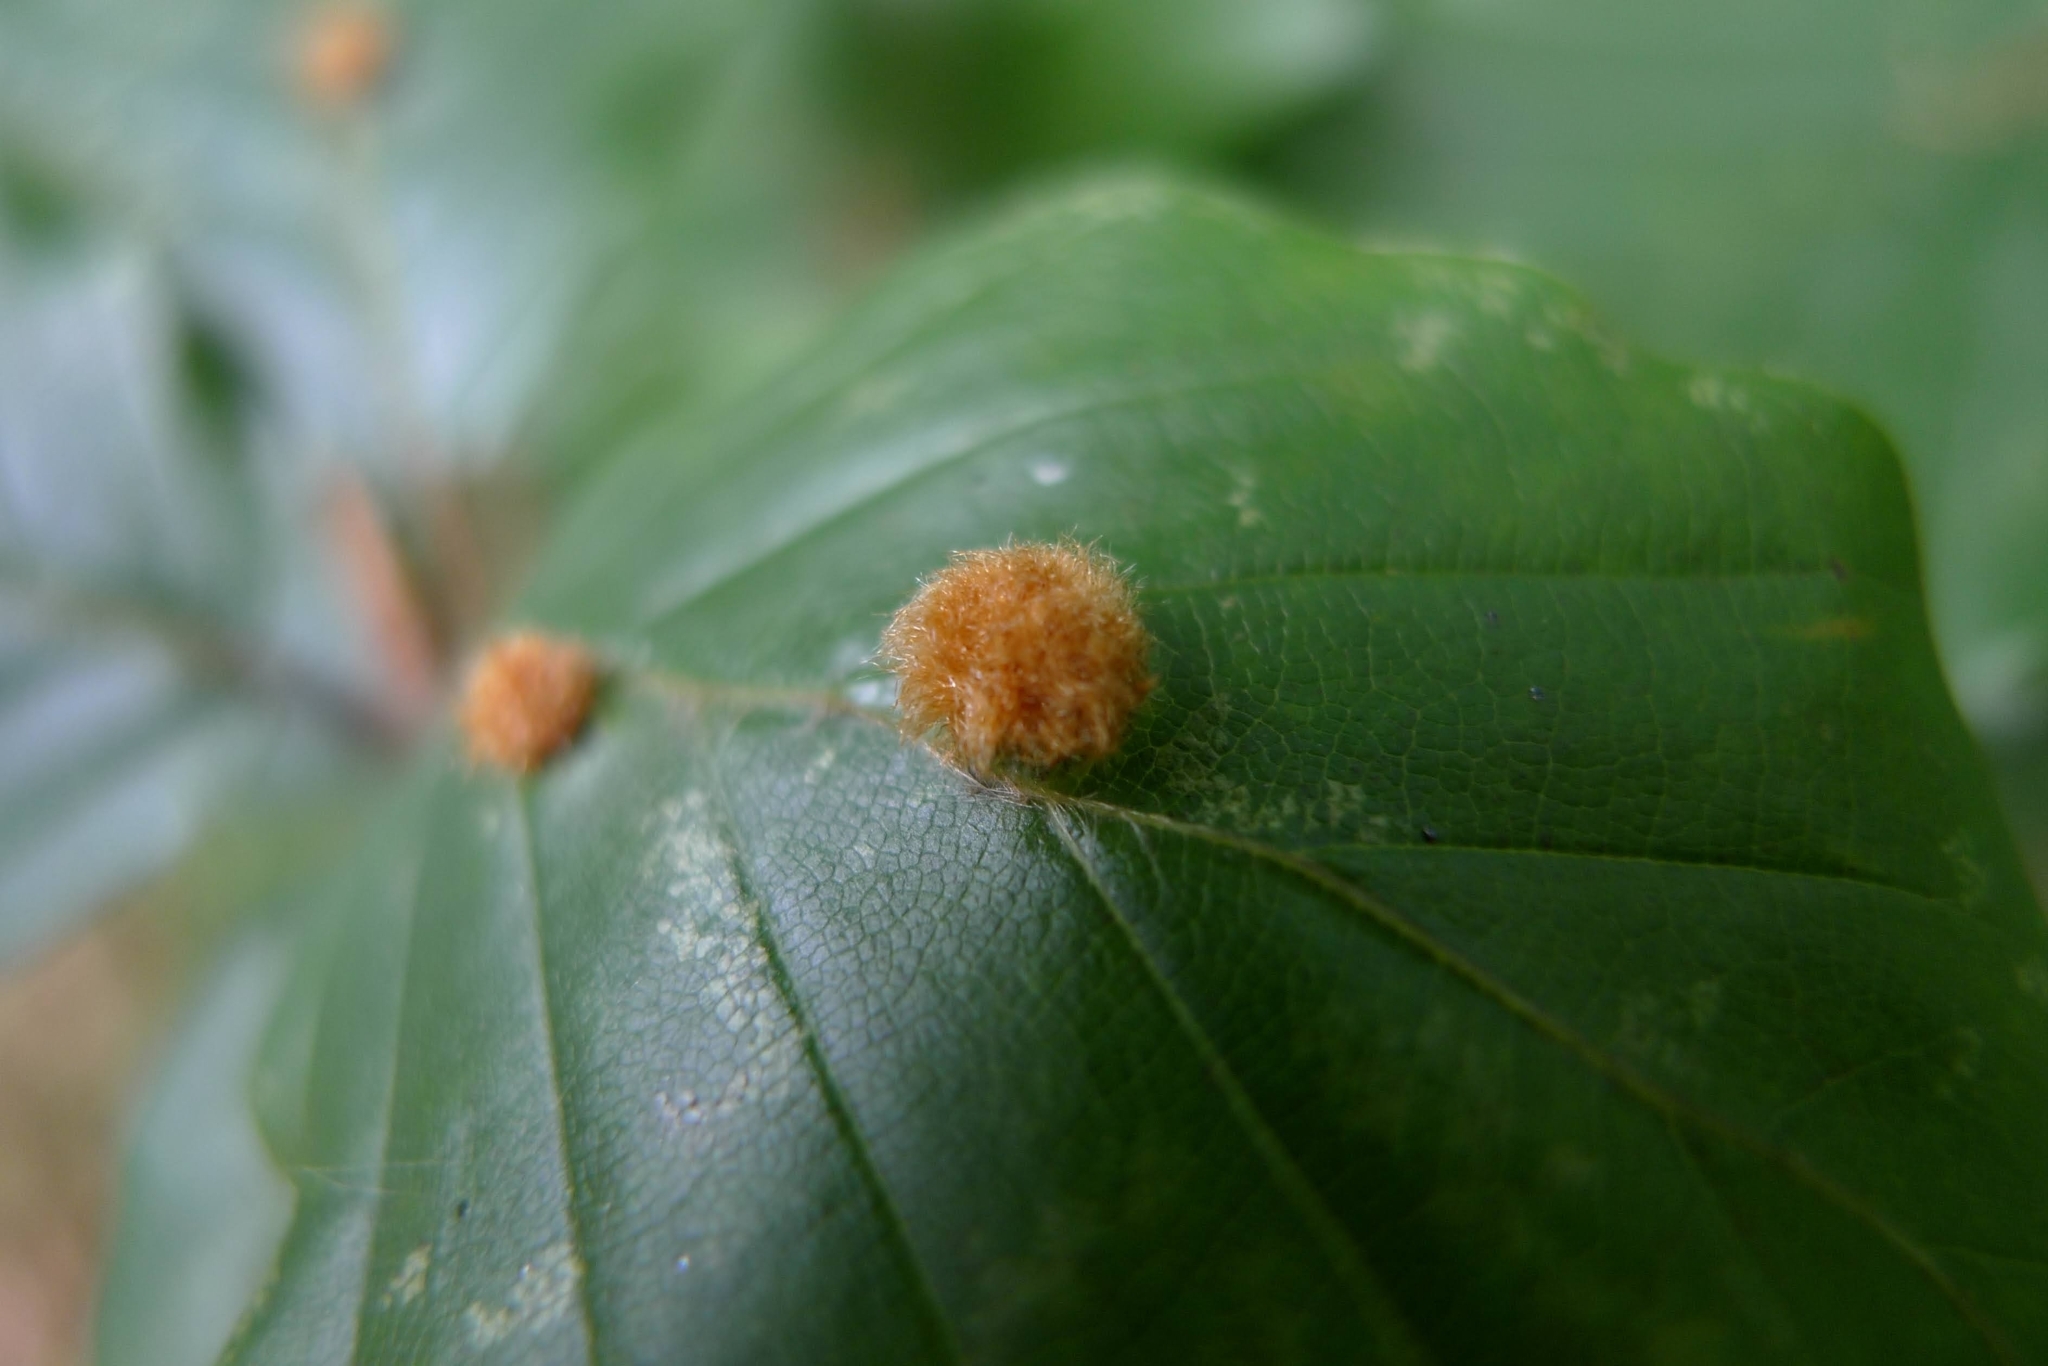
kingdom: Animalia
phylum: Arthropoda
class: Insecta
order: Diptera
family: Cecidomyiidae
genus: Hartigiola
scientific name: Hartigiola annulipes
